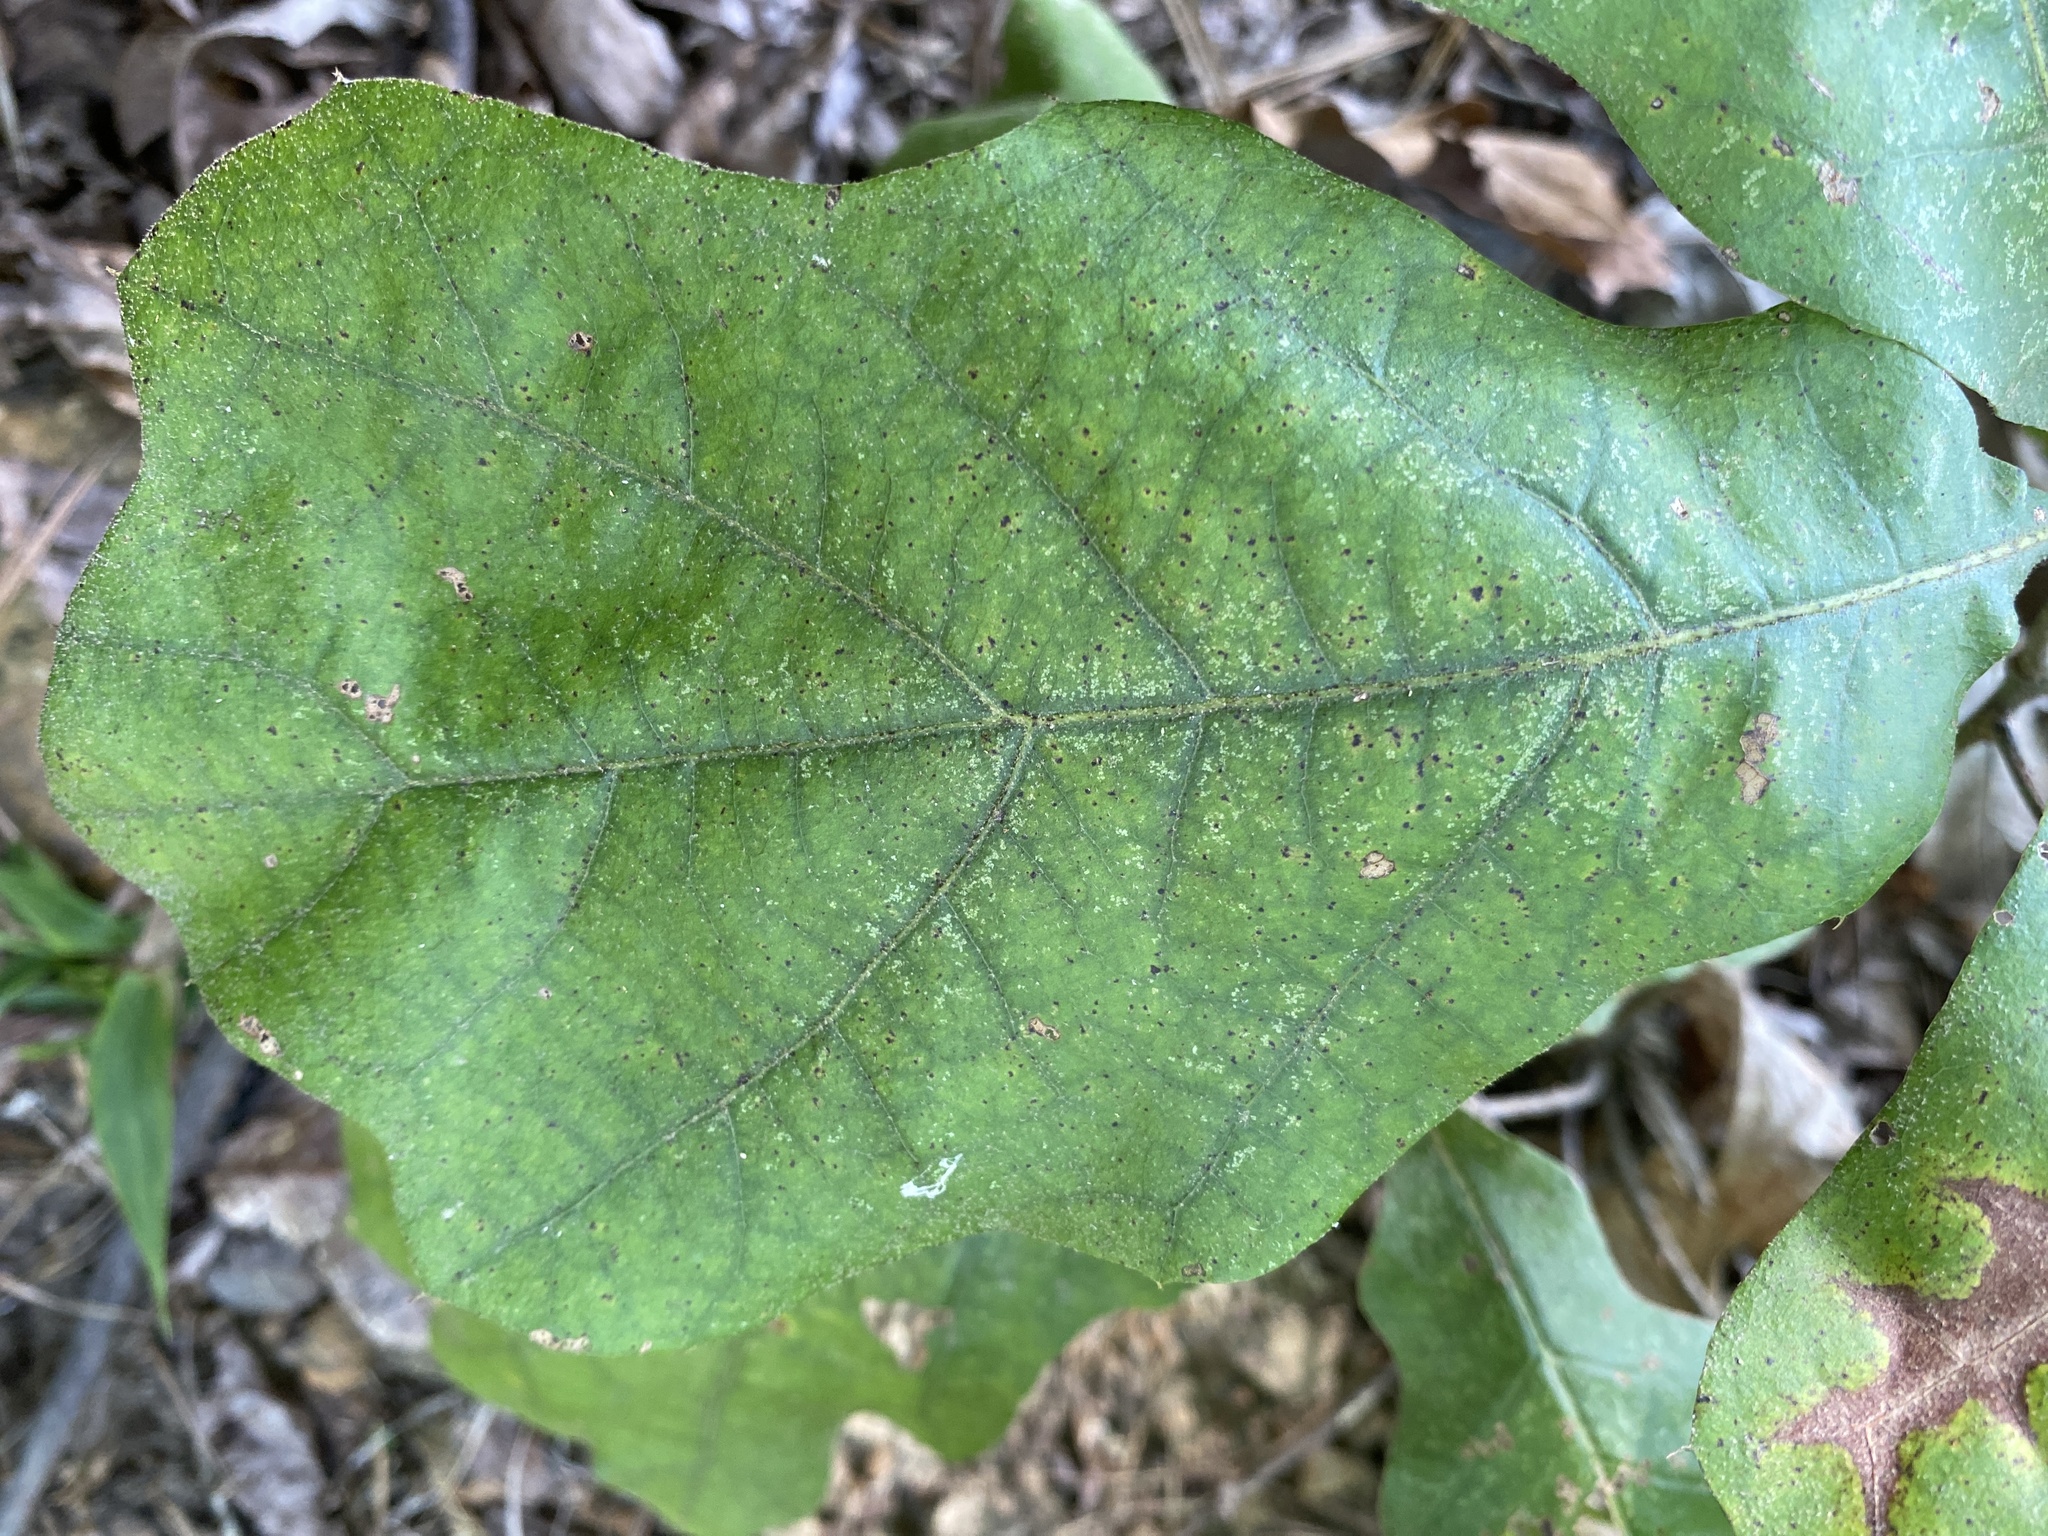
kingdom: Plantae
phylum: Tracheophyta
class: Magnoliopsida
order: Fagales
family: Fagaceae
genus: Quercus
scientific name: Quercus velutina
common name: Black oak
